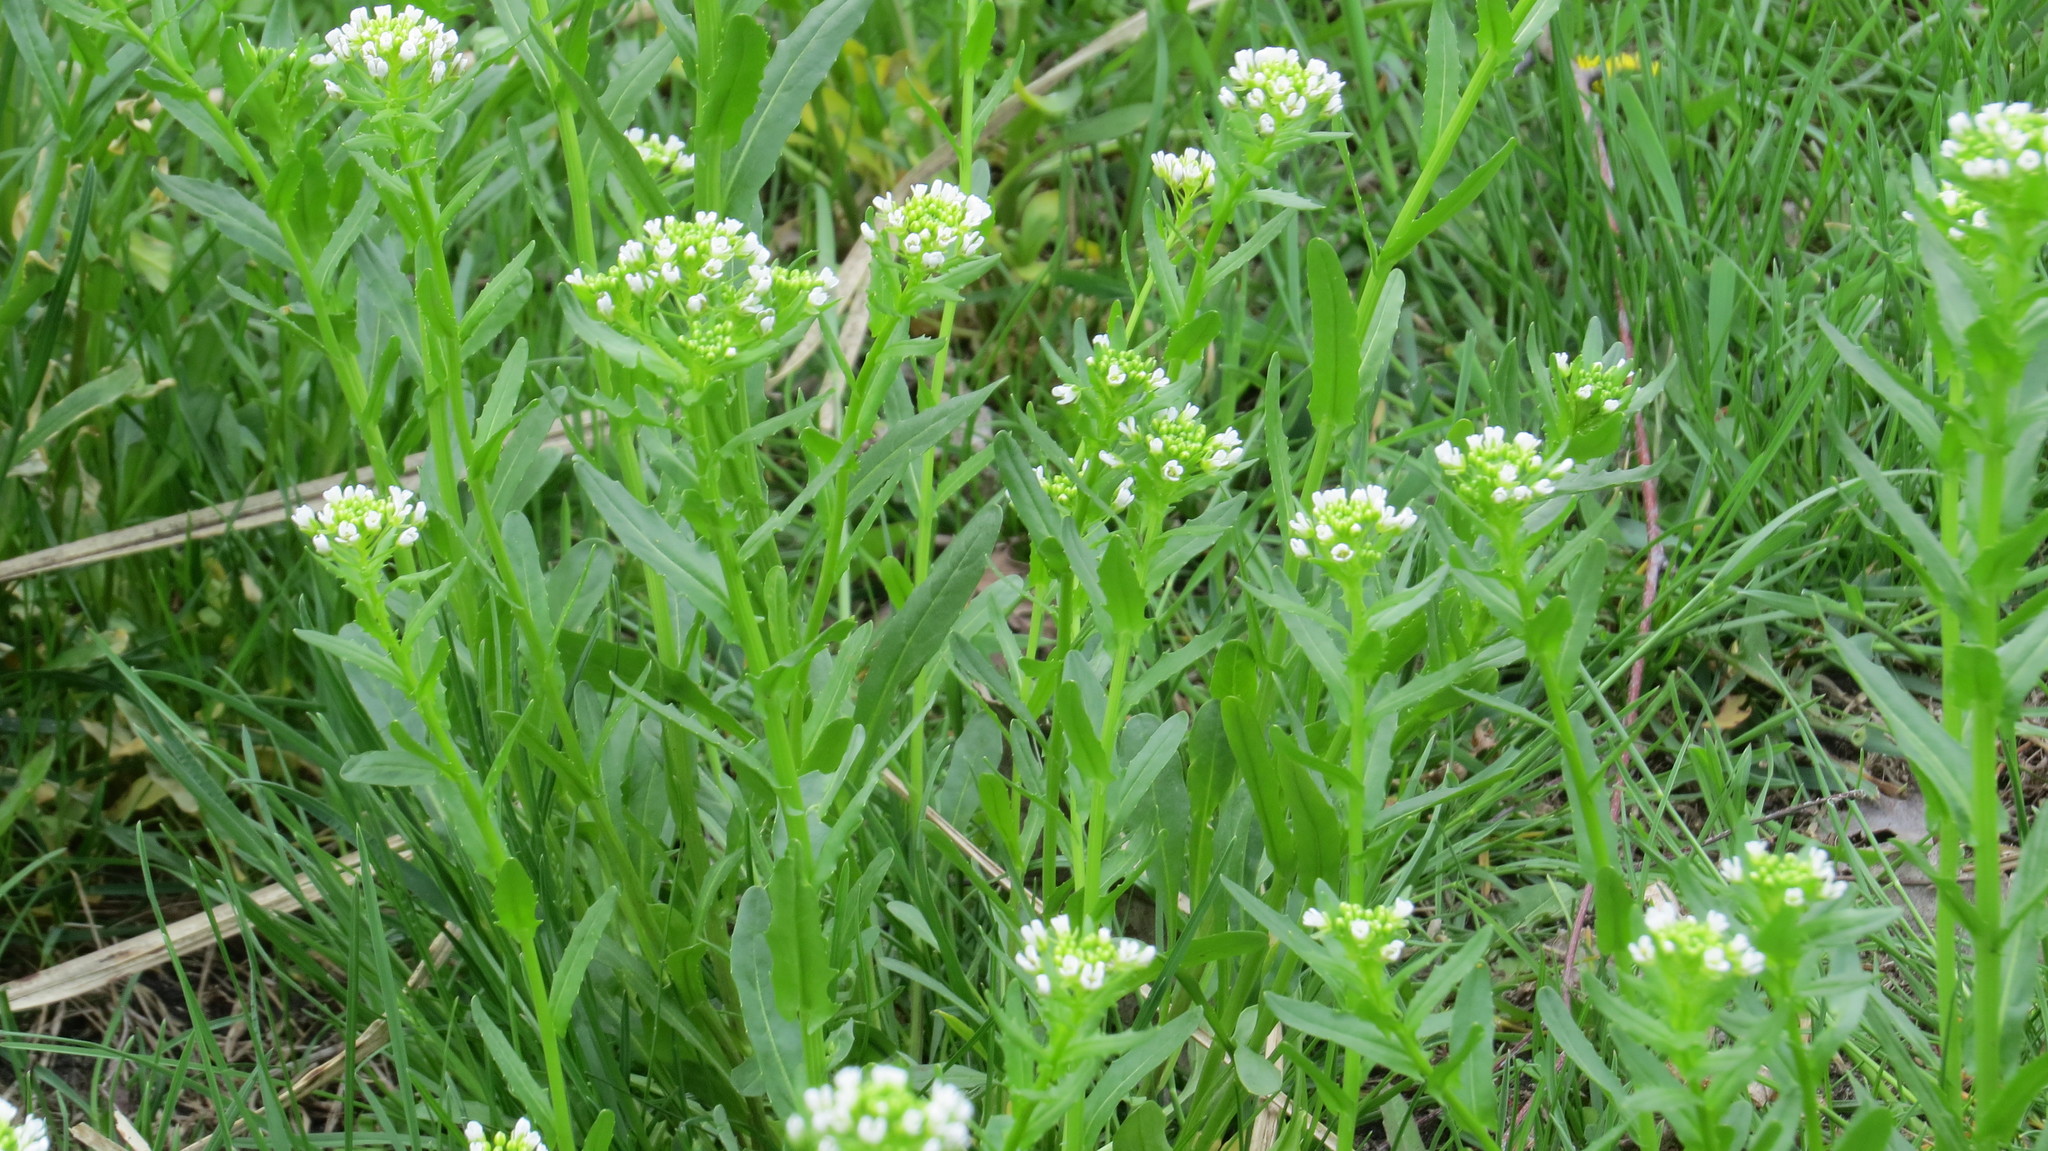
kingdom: Plantae
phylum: Tracheophyta
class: Magnoliopsida
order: Brassicales
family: Brassicaceae
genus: Thlaspi
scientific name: Thlaspi arvense
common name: Field pennycress
